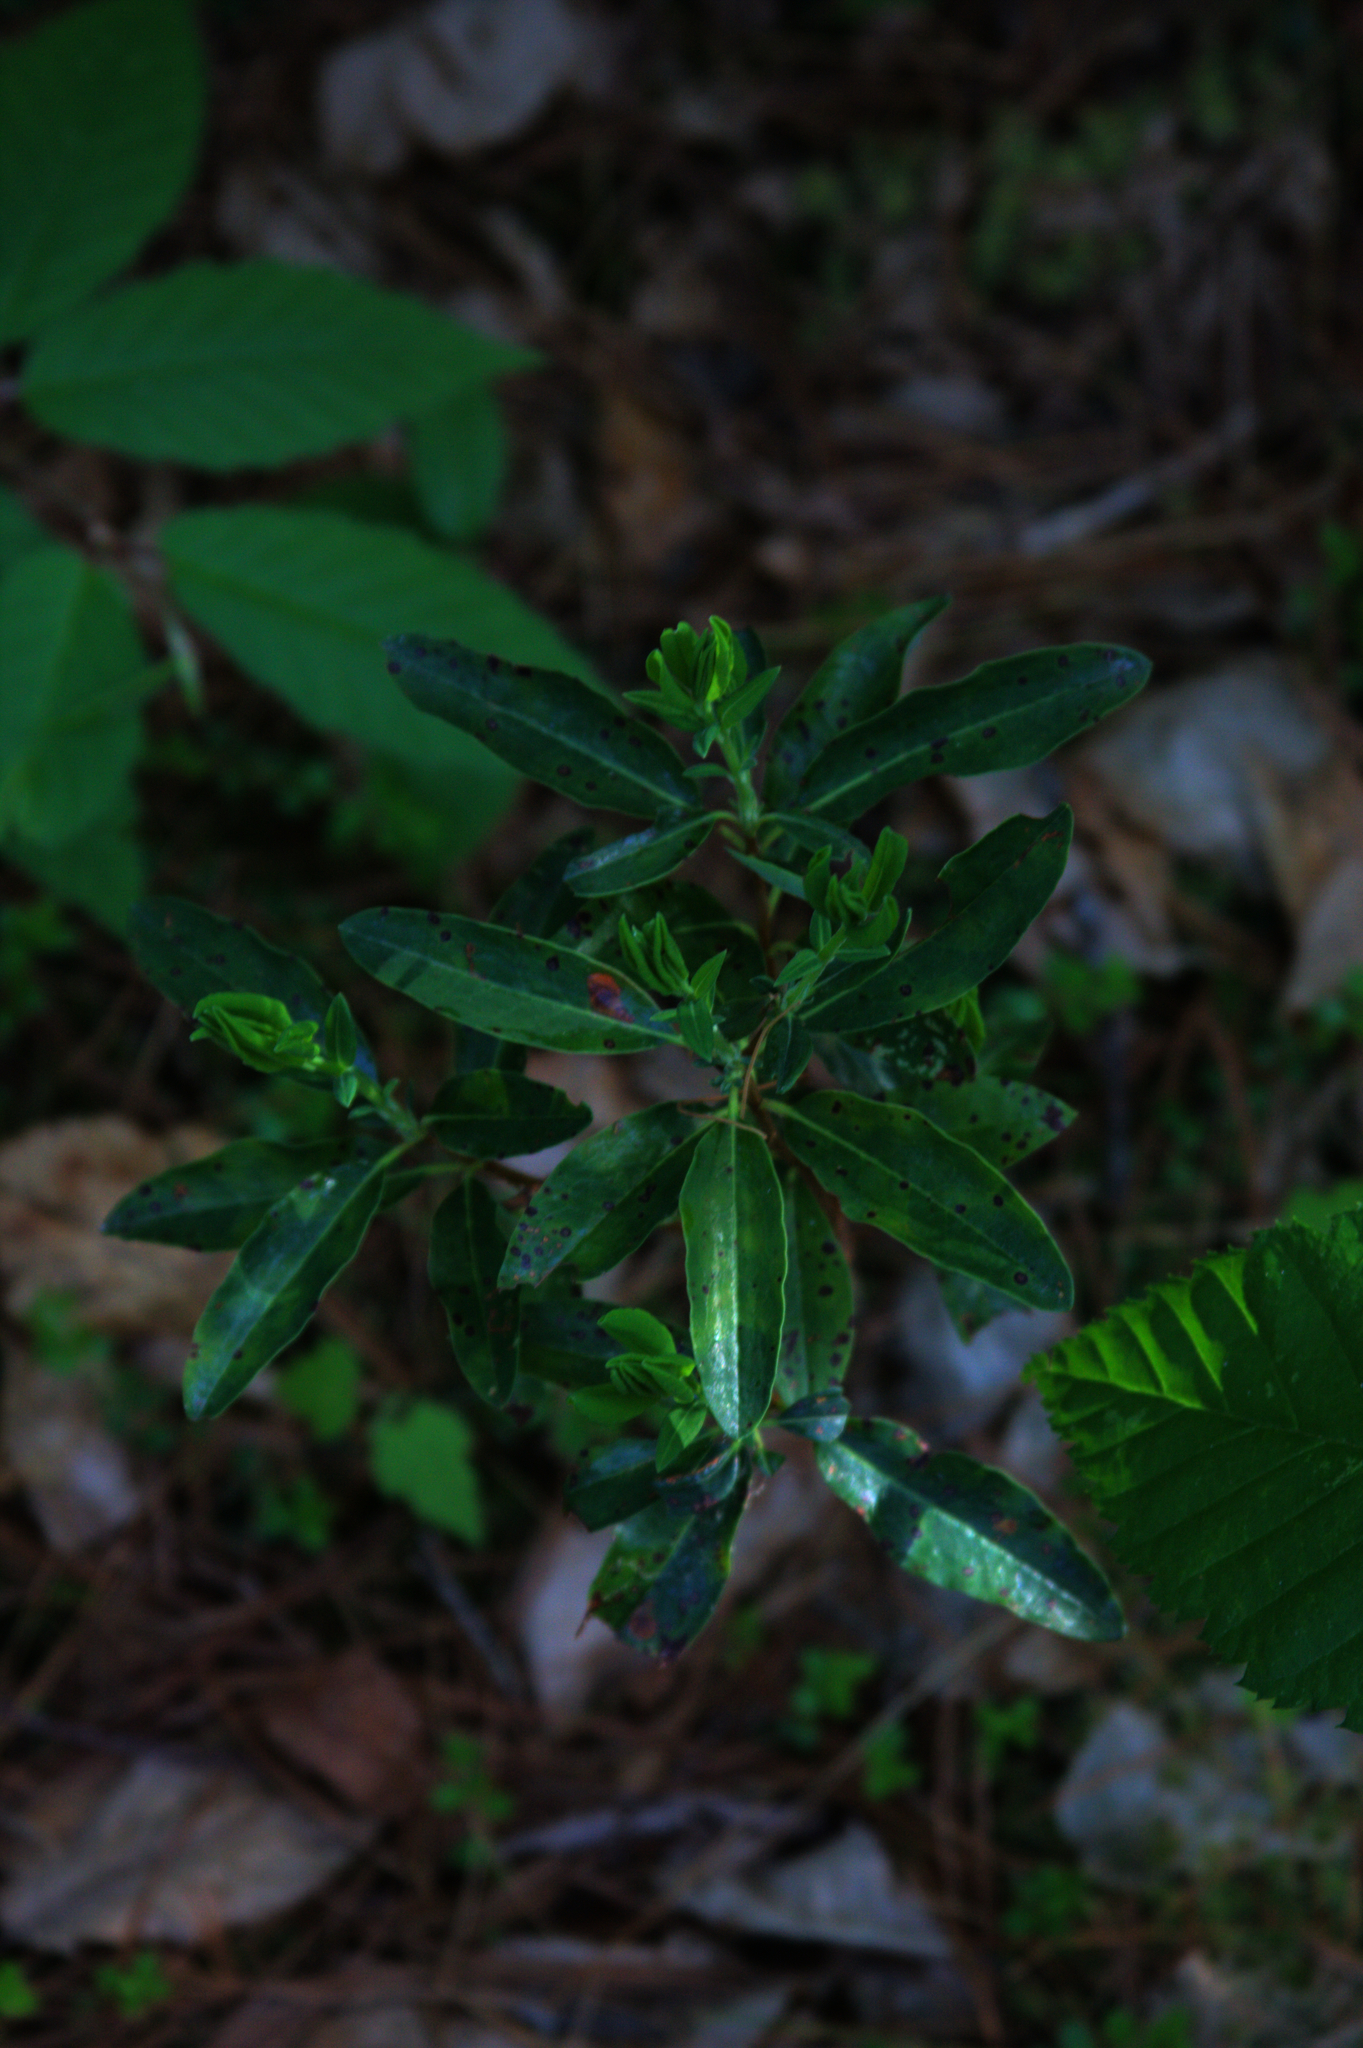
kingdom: Plantae
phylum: Tracheophyta
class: Magnoliopsida
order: Ericales
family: Ericaceae
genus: Kalmia
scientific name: Kalmia angustifolia
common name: Sheep-laurel
